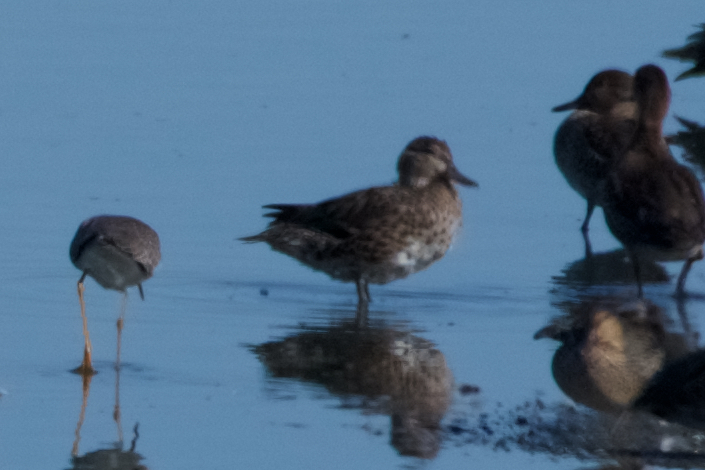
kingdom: Animalia
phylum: Chordata
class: Aves
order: Anseriformes
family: Anatidae
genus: Anas
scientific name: Anas crecca
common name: Eurasian teal
